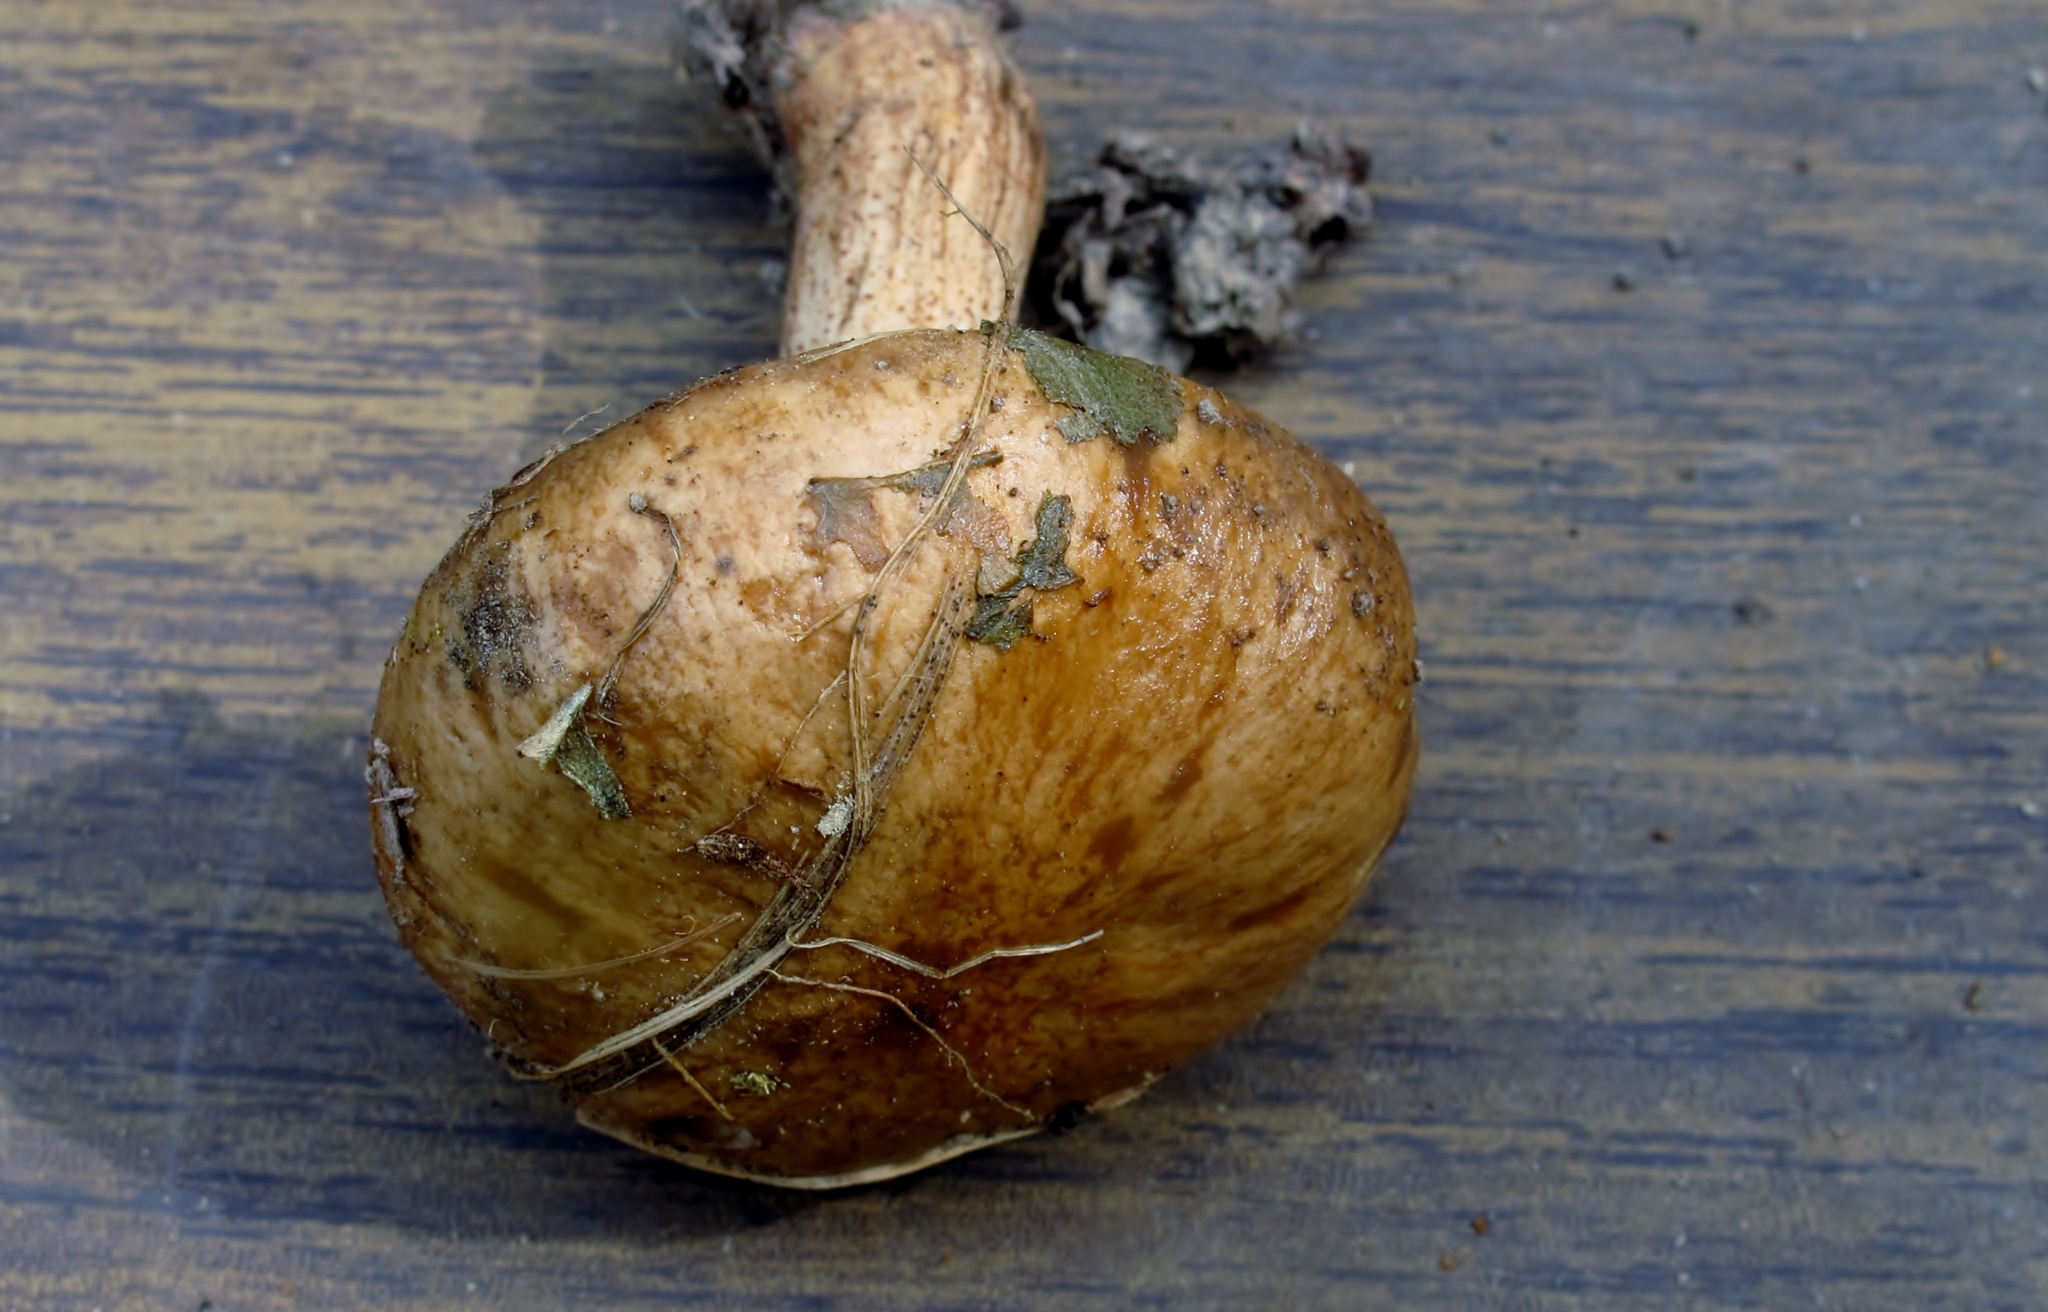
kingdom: Fungi
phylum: Basidiomycota
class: Agaricomycetes
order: Boletales
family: Suillaceae
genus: Suillus
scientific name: Suillus salmonicolor
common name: Slippery jill
